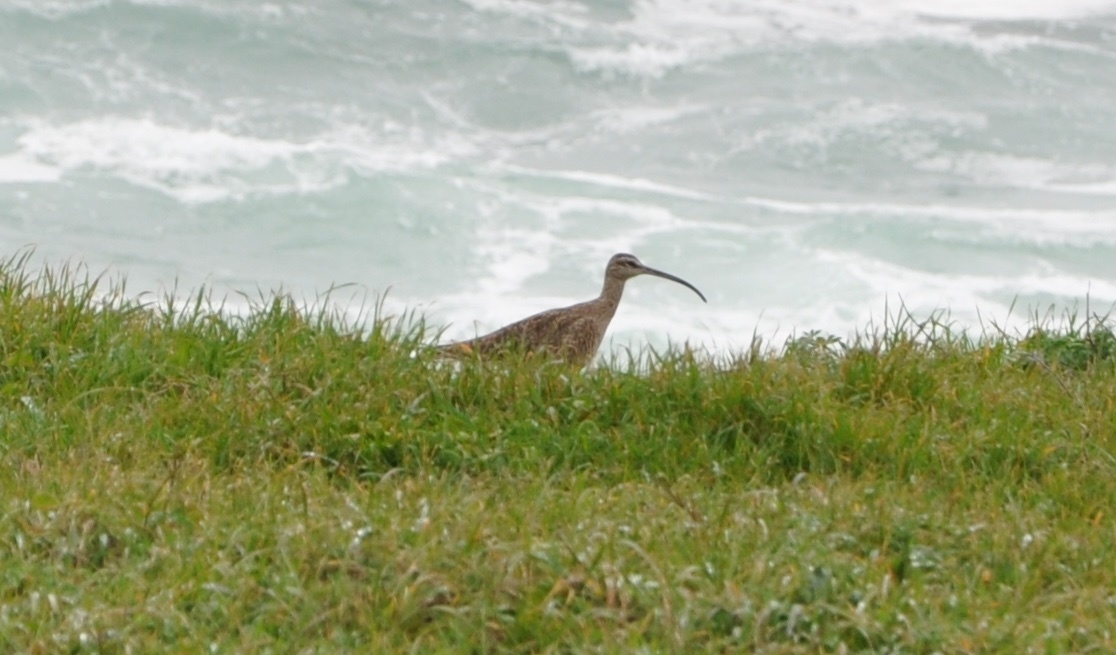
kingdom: Animalia
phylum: Chordata
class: Aves
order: Charadriiformes
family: Scolopacidae
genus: Numenius
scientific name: Numenius phaeopus
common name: Whimbrel
